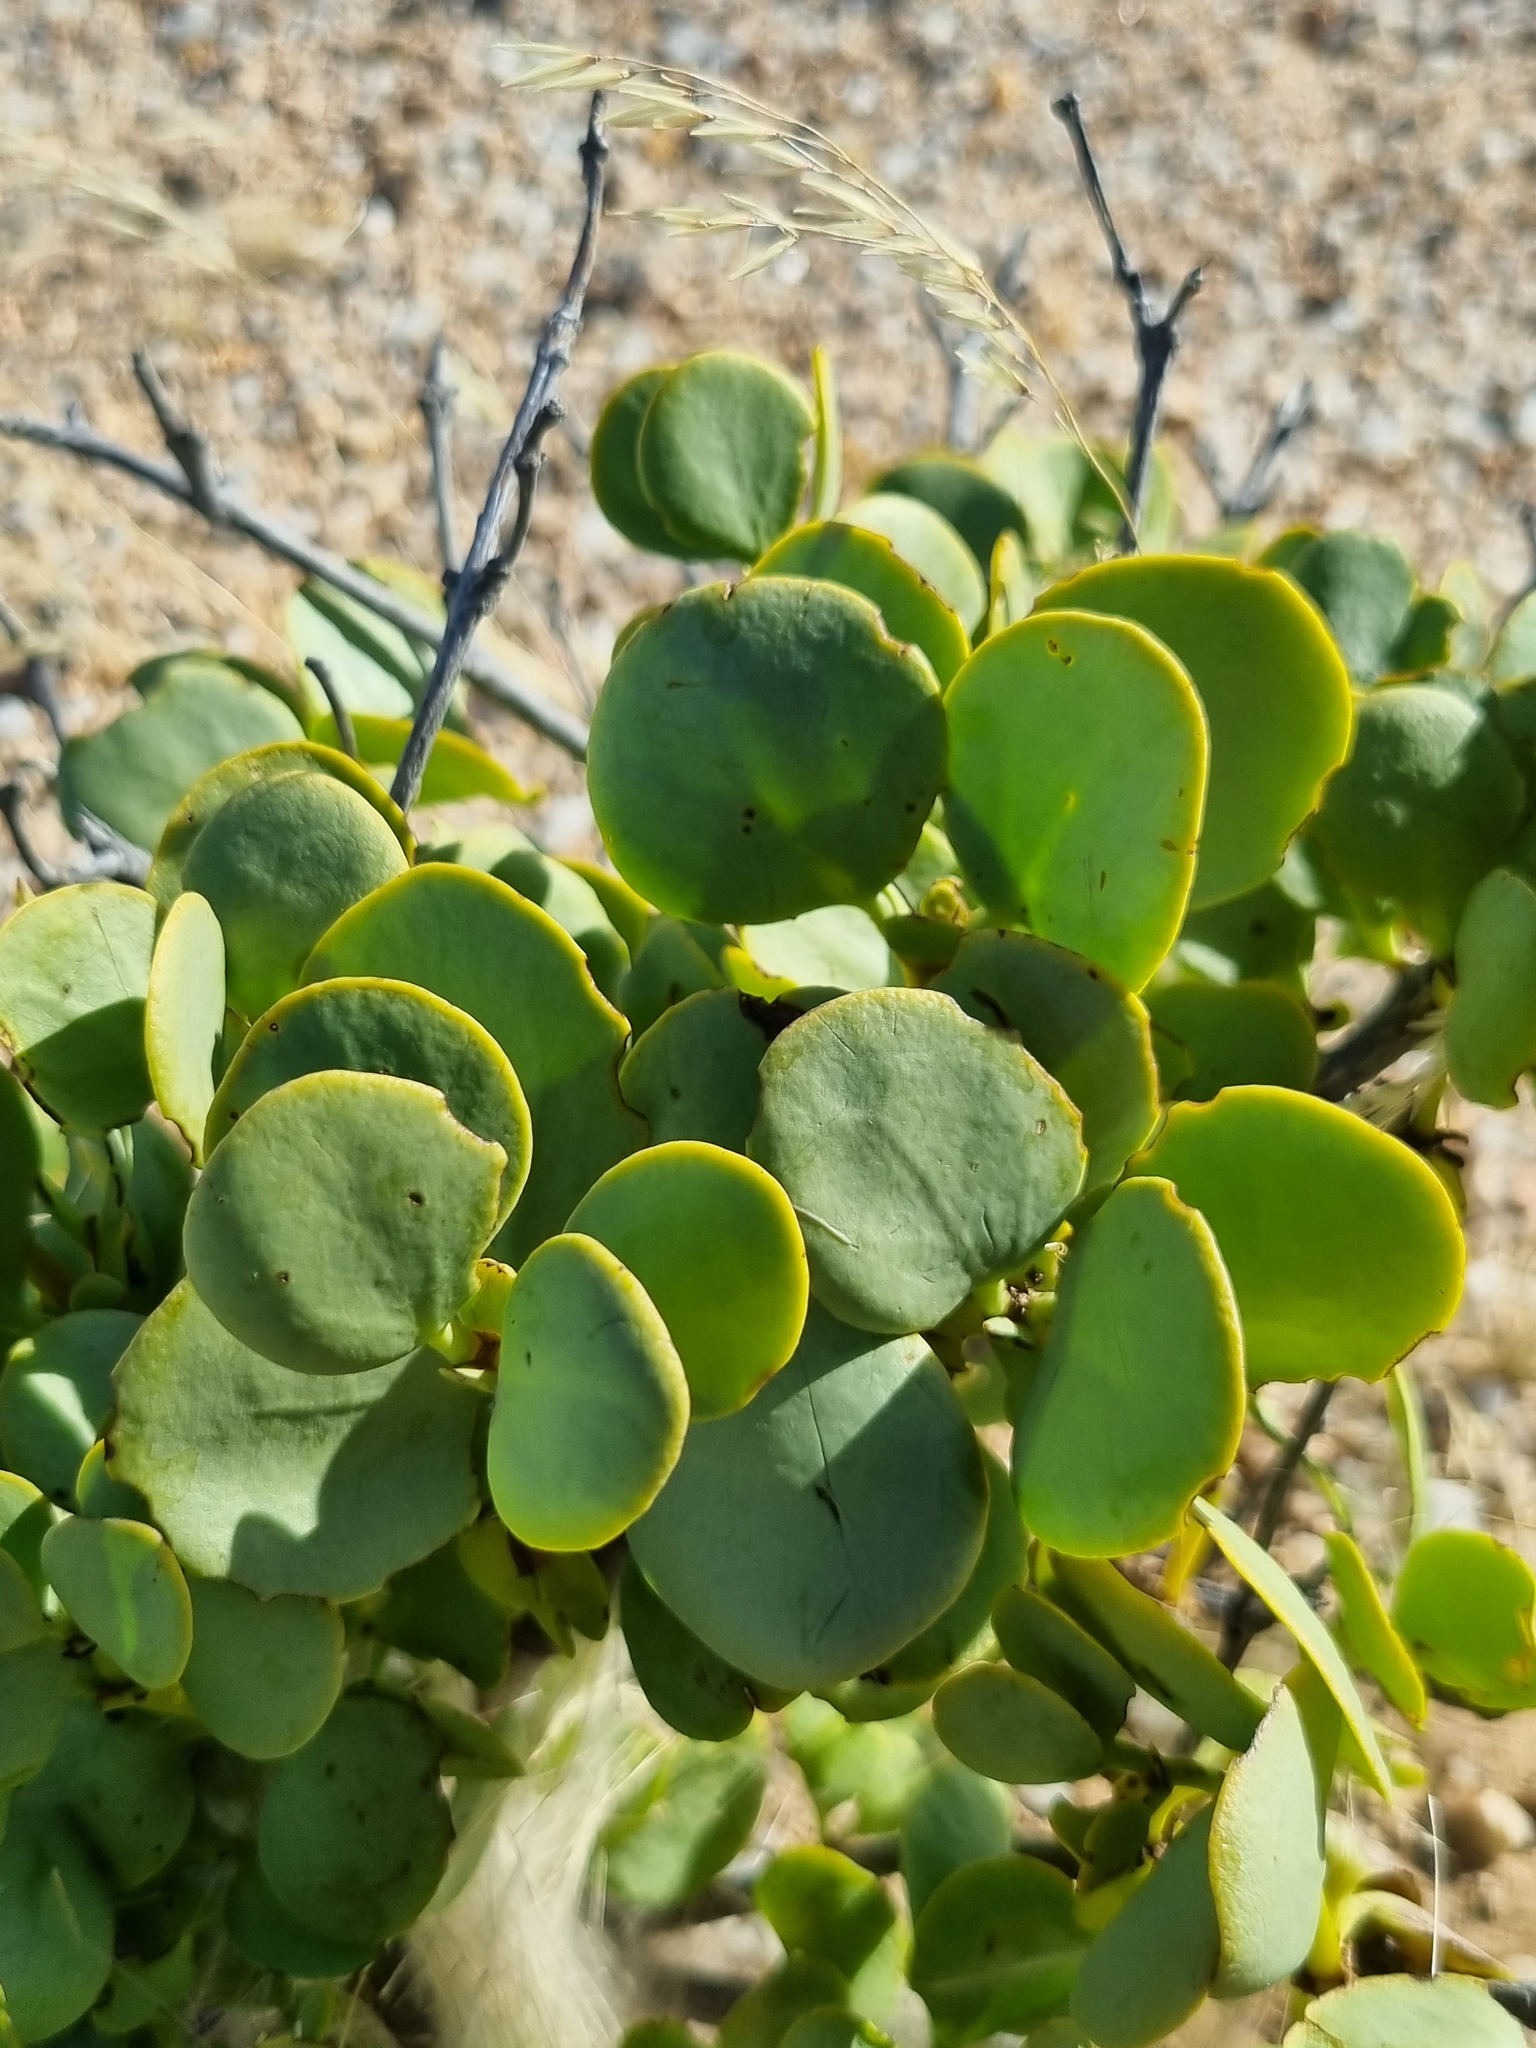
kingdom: Plantae
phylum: Tracheophyta
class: Magnoliopsida
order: Zygophyllales
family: Zygophyllaceae
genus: Tetraena
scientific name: Tetraena stapfii
